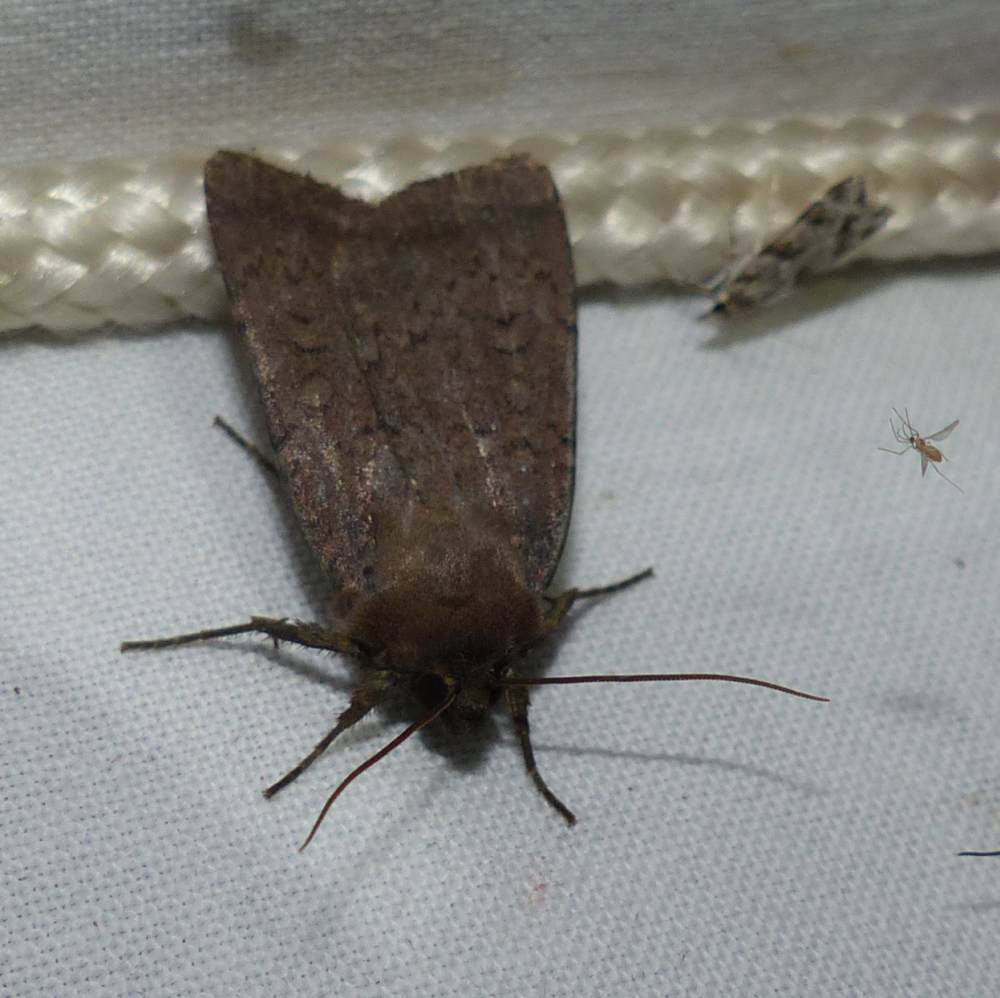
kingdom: Animalia
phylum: Arthropoda
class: Insecta
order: Lepidoptera
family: Noctuidae
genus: Graphiphora
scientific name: Graphiphora augur
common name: Double dart
